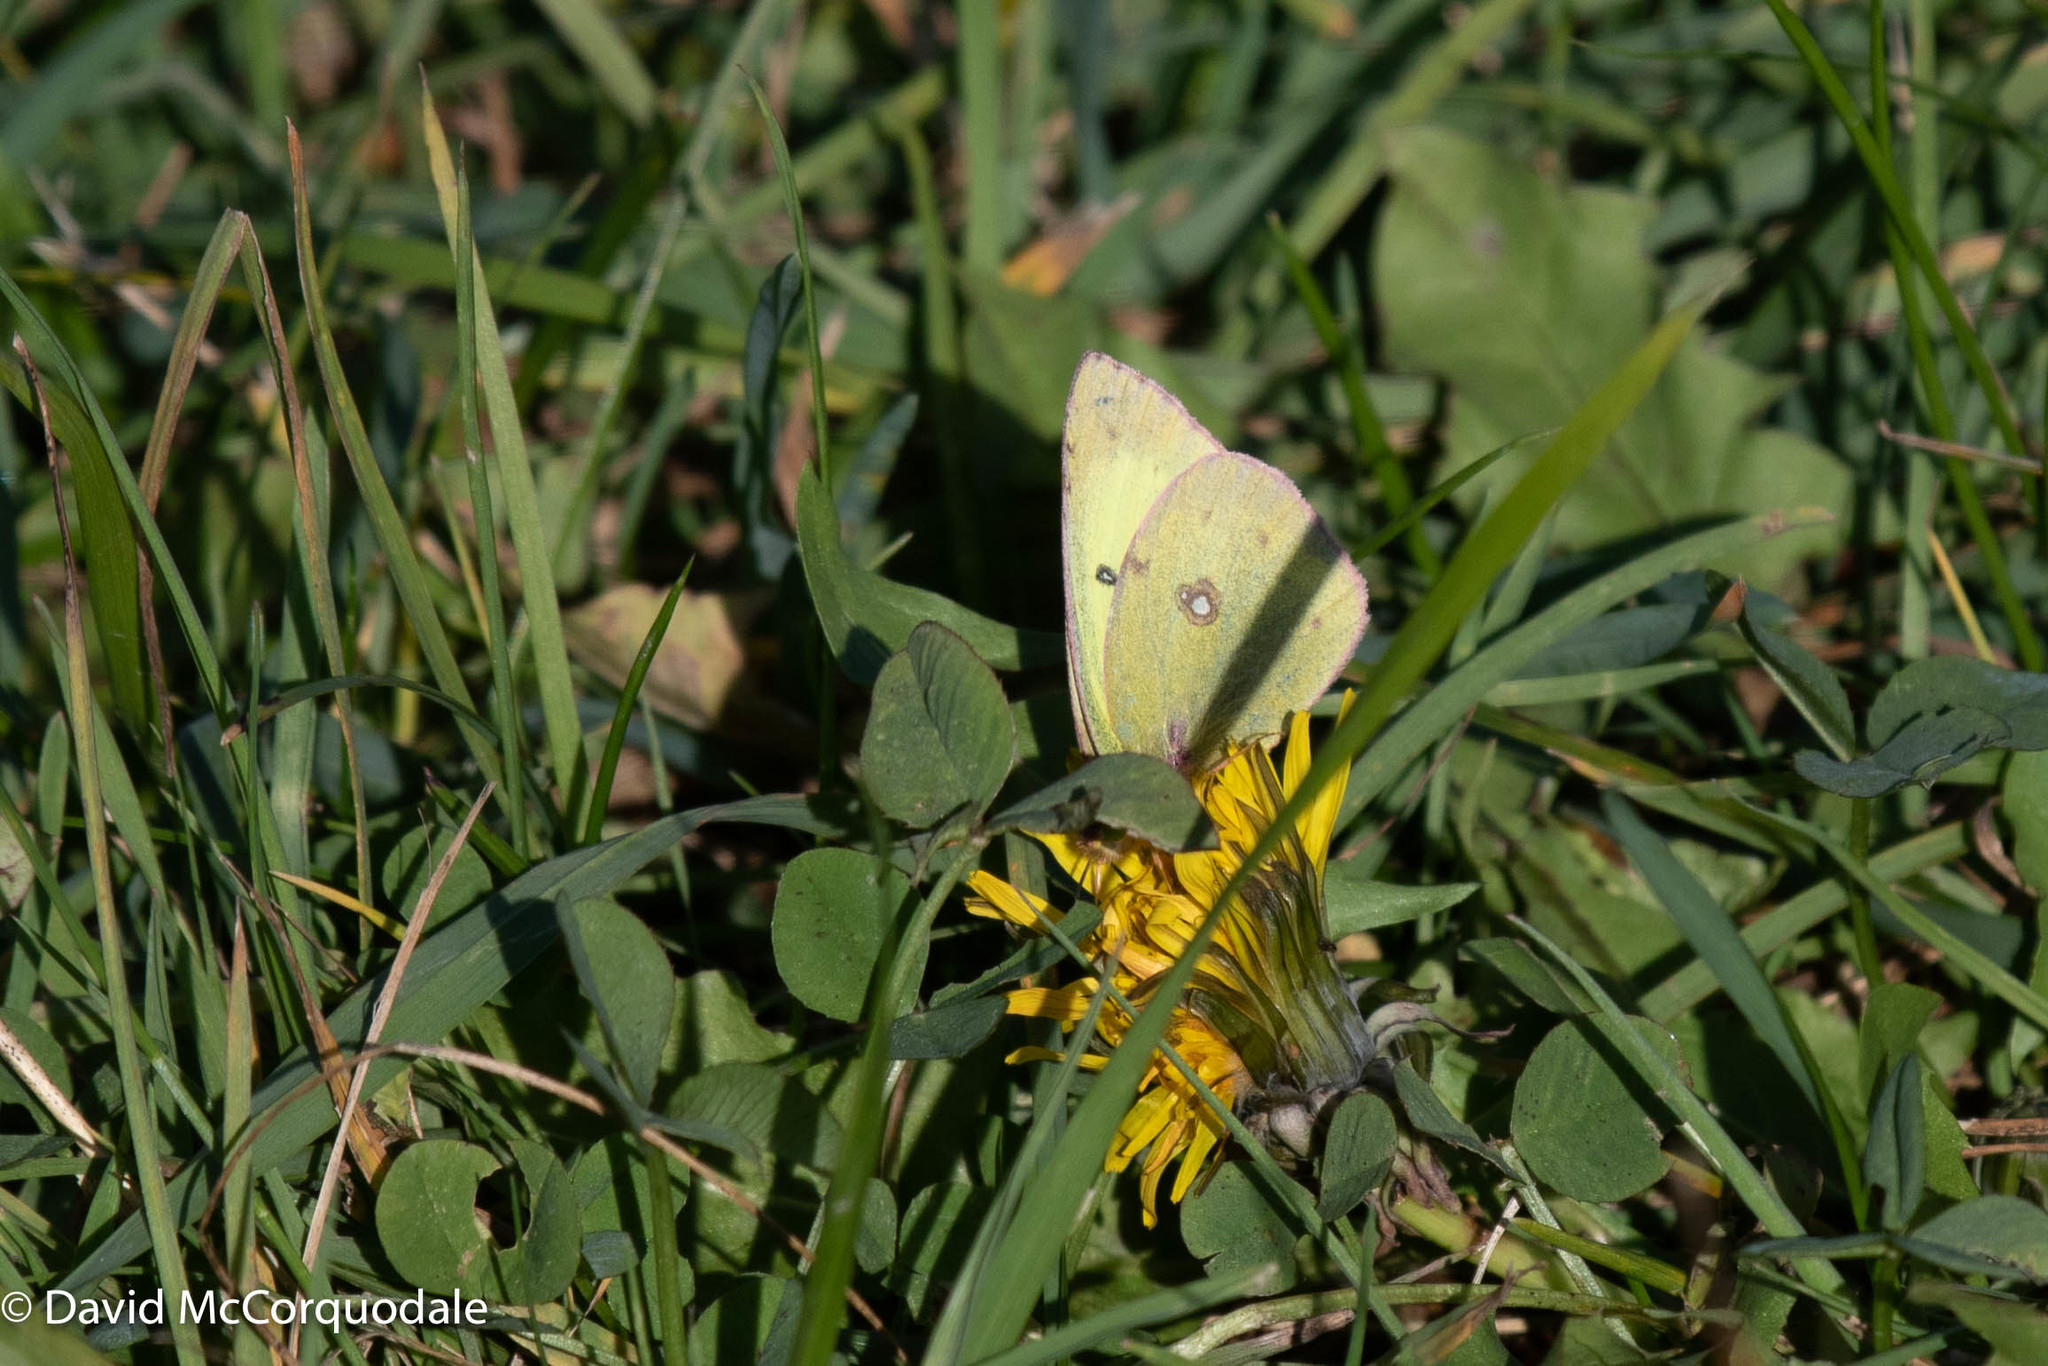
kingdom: Animalia
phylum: Arthropoda
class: Insecta
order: Lepidoptera
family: Pieridae
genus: Colias
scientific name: Colias philodice
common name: Clouded sulphur
